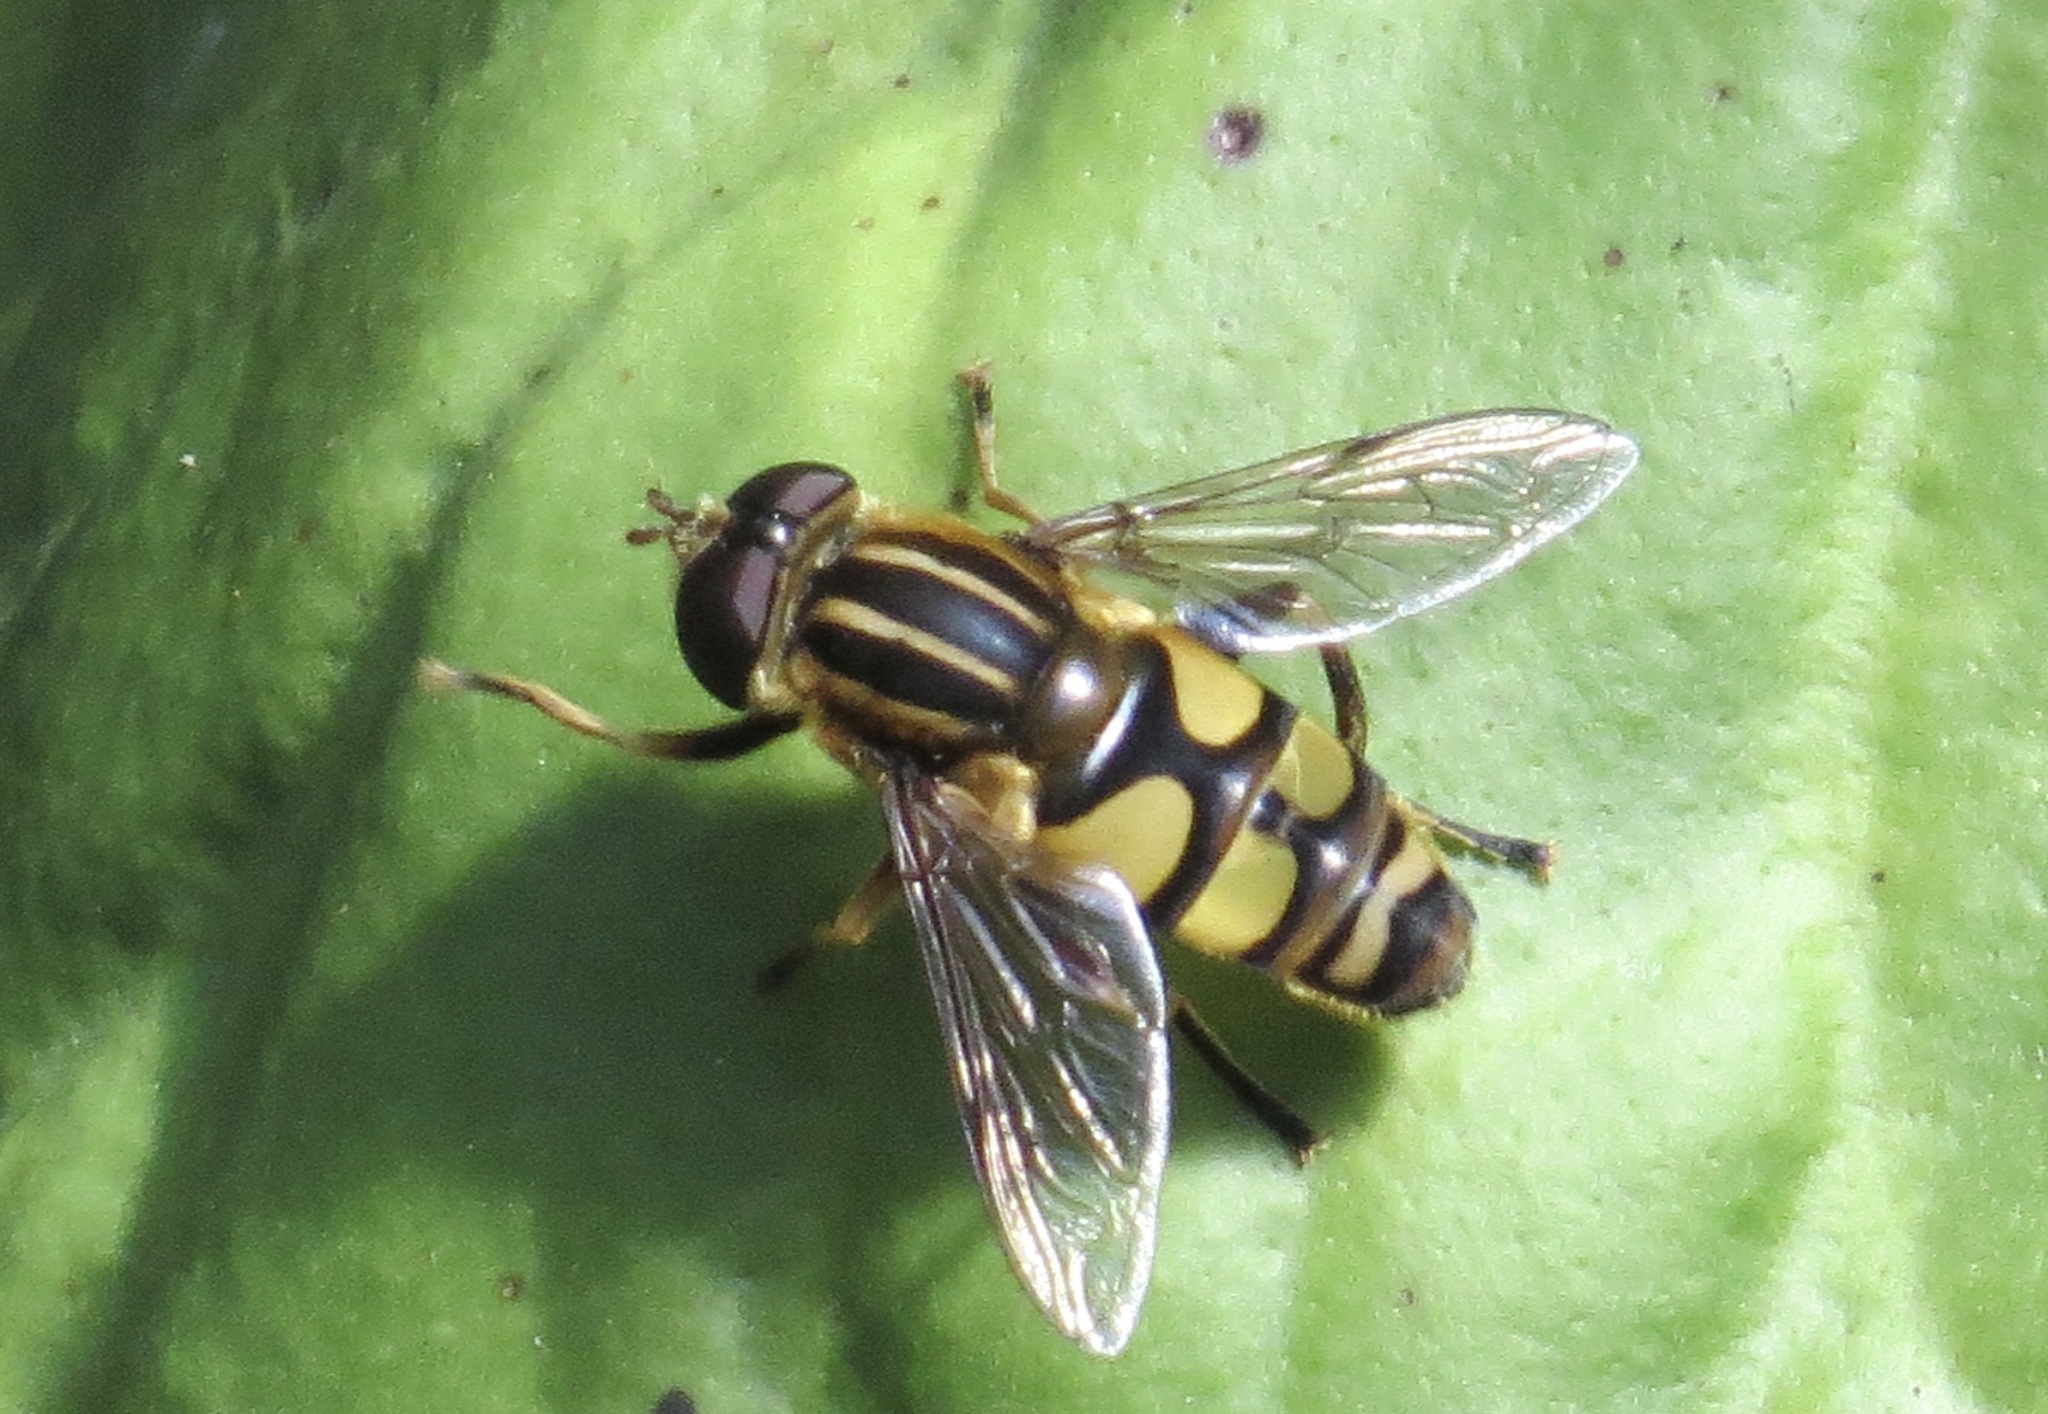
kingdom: Animalia
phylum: Arthropoda
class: Insecta
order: Diptera
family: Syrphidae
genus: Helophilus
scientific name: Helophilus fasciatus
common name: Narrow-headed marsh fly
